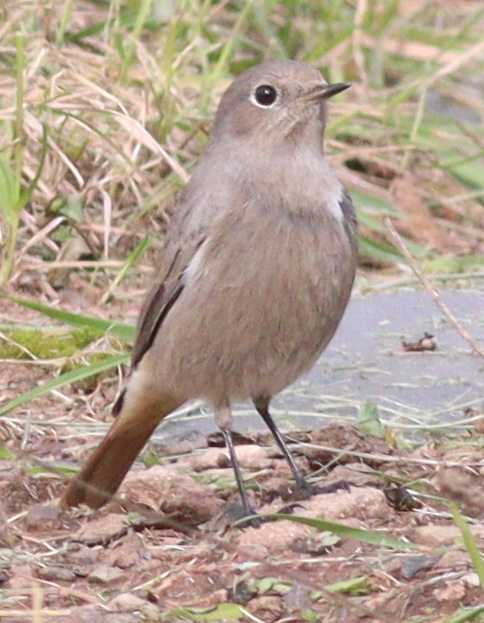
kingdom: Animalia
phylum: Chordata
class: Aves
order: Passeriformes
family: Muscicapidae
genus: Phoenicurus
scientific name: Phoenicurus ochruros
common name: Black redstart
